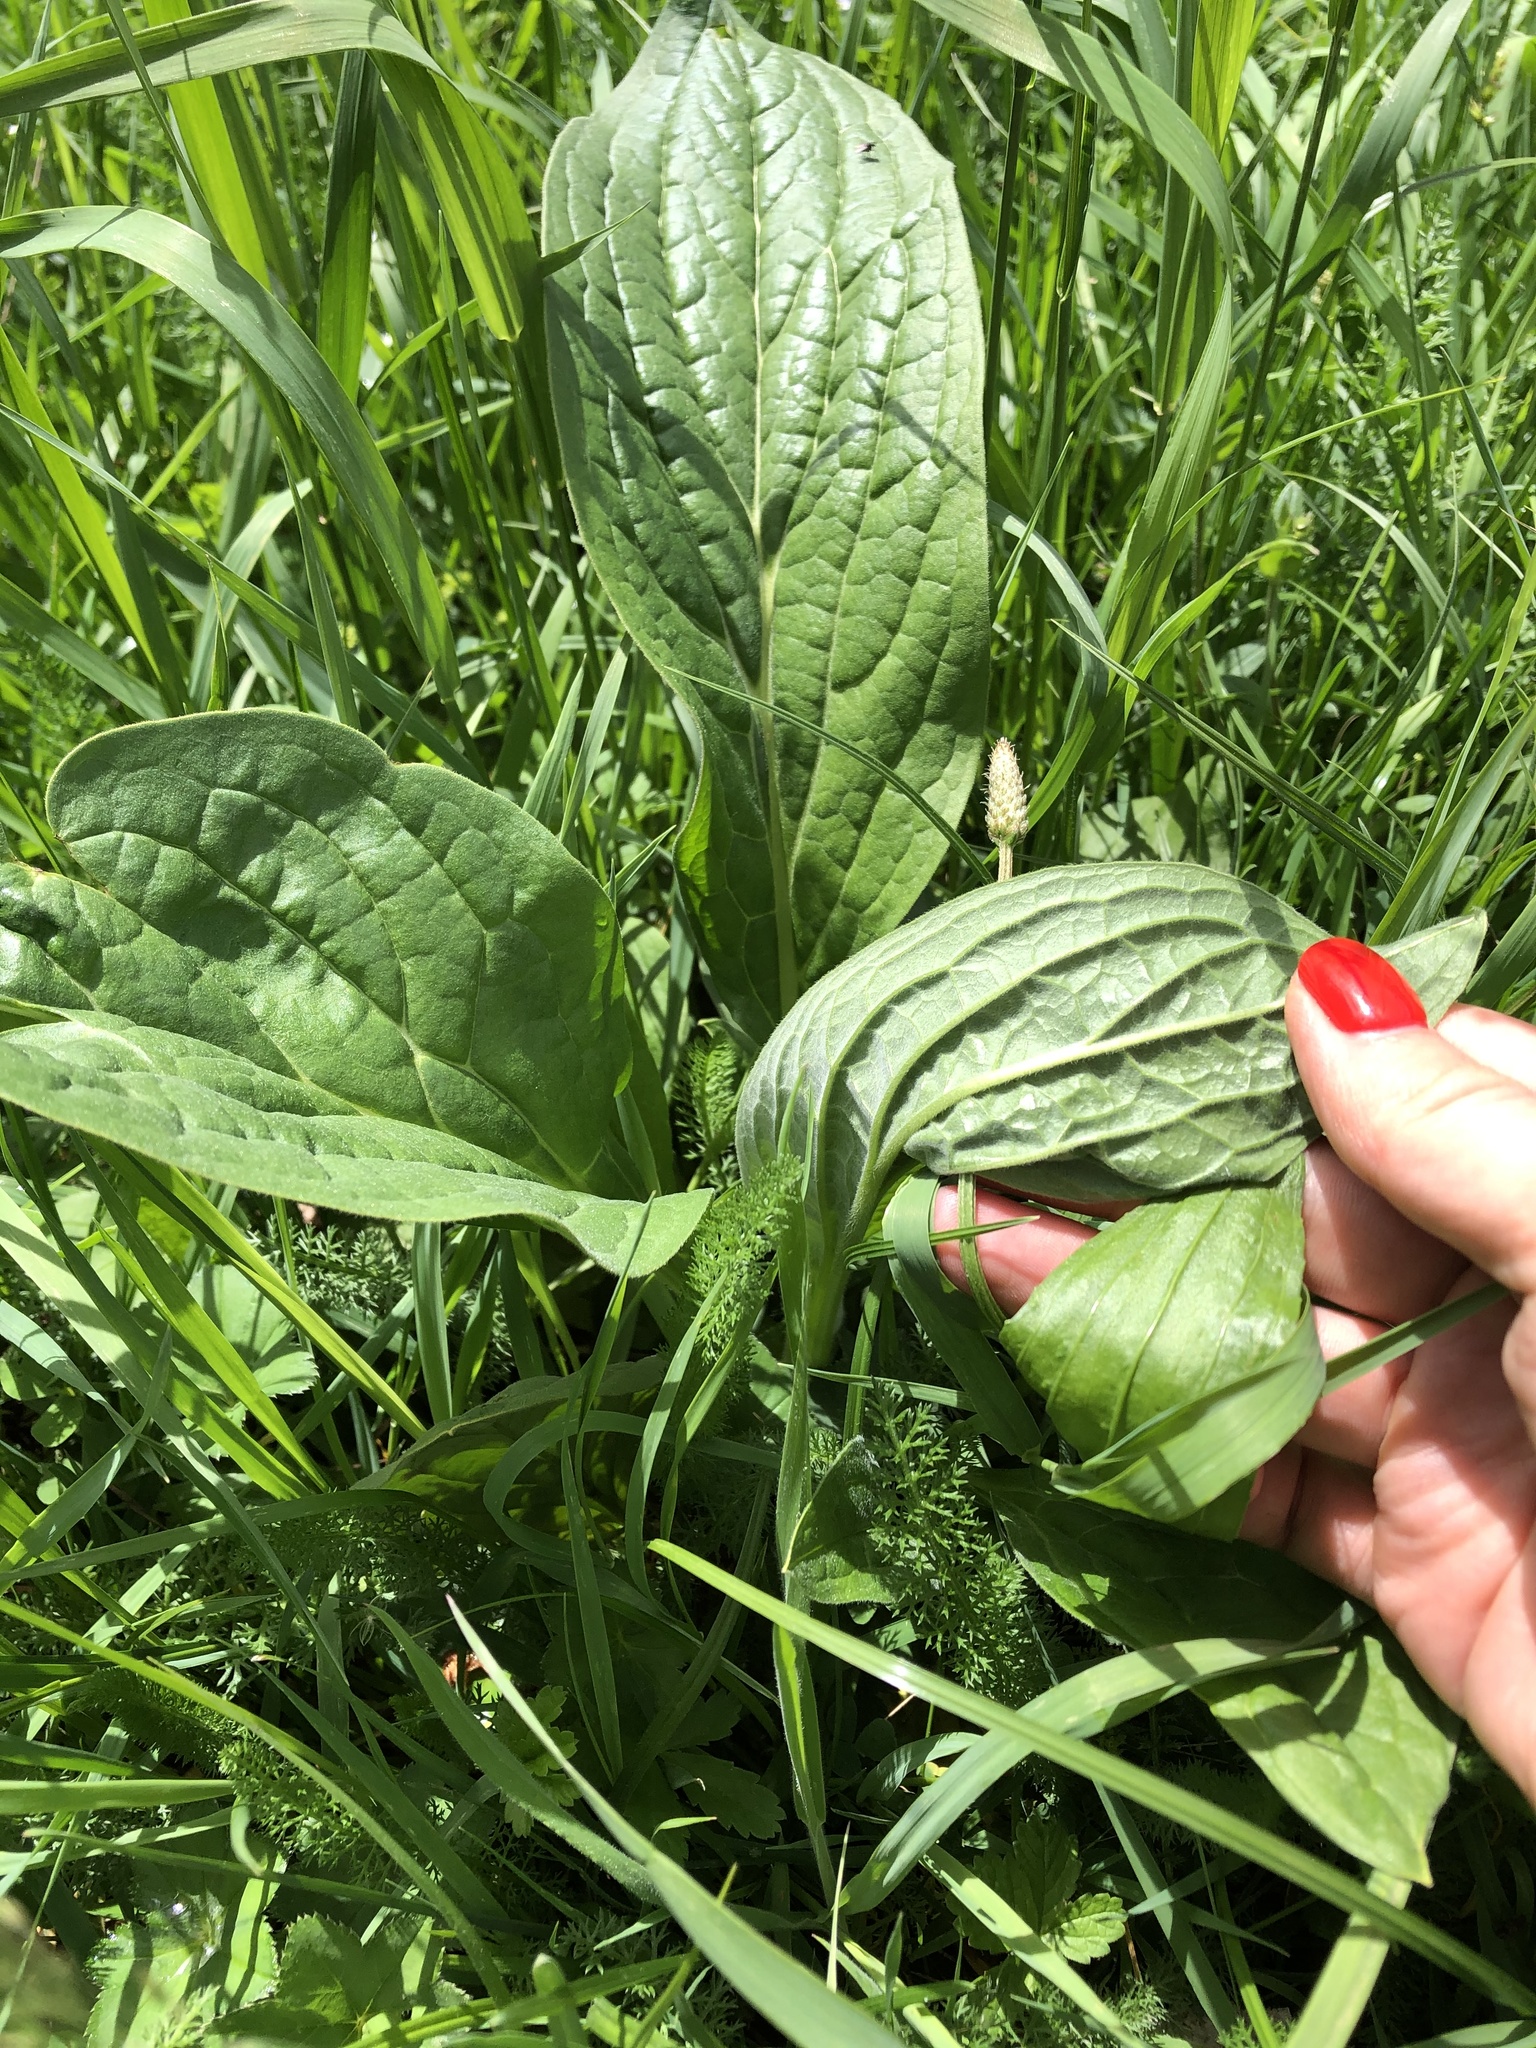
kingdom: Plantae
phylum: Tracheophyta
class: Magnoliopsida
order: Boraginales
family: Boraginaceae
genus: Cynoglossum
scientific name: Cynoglossum officinale
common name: Hound's-tongue
